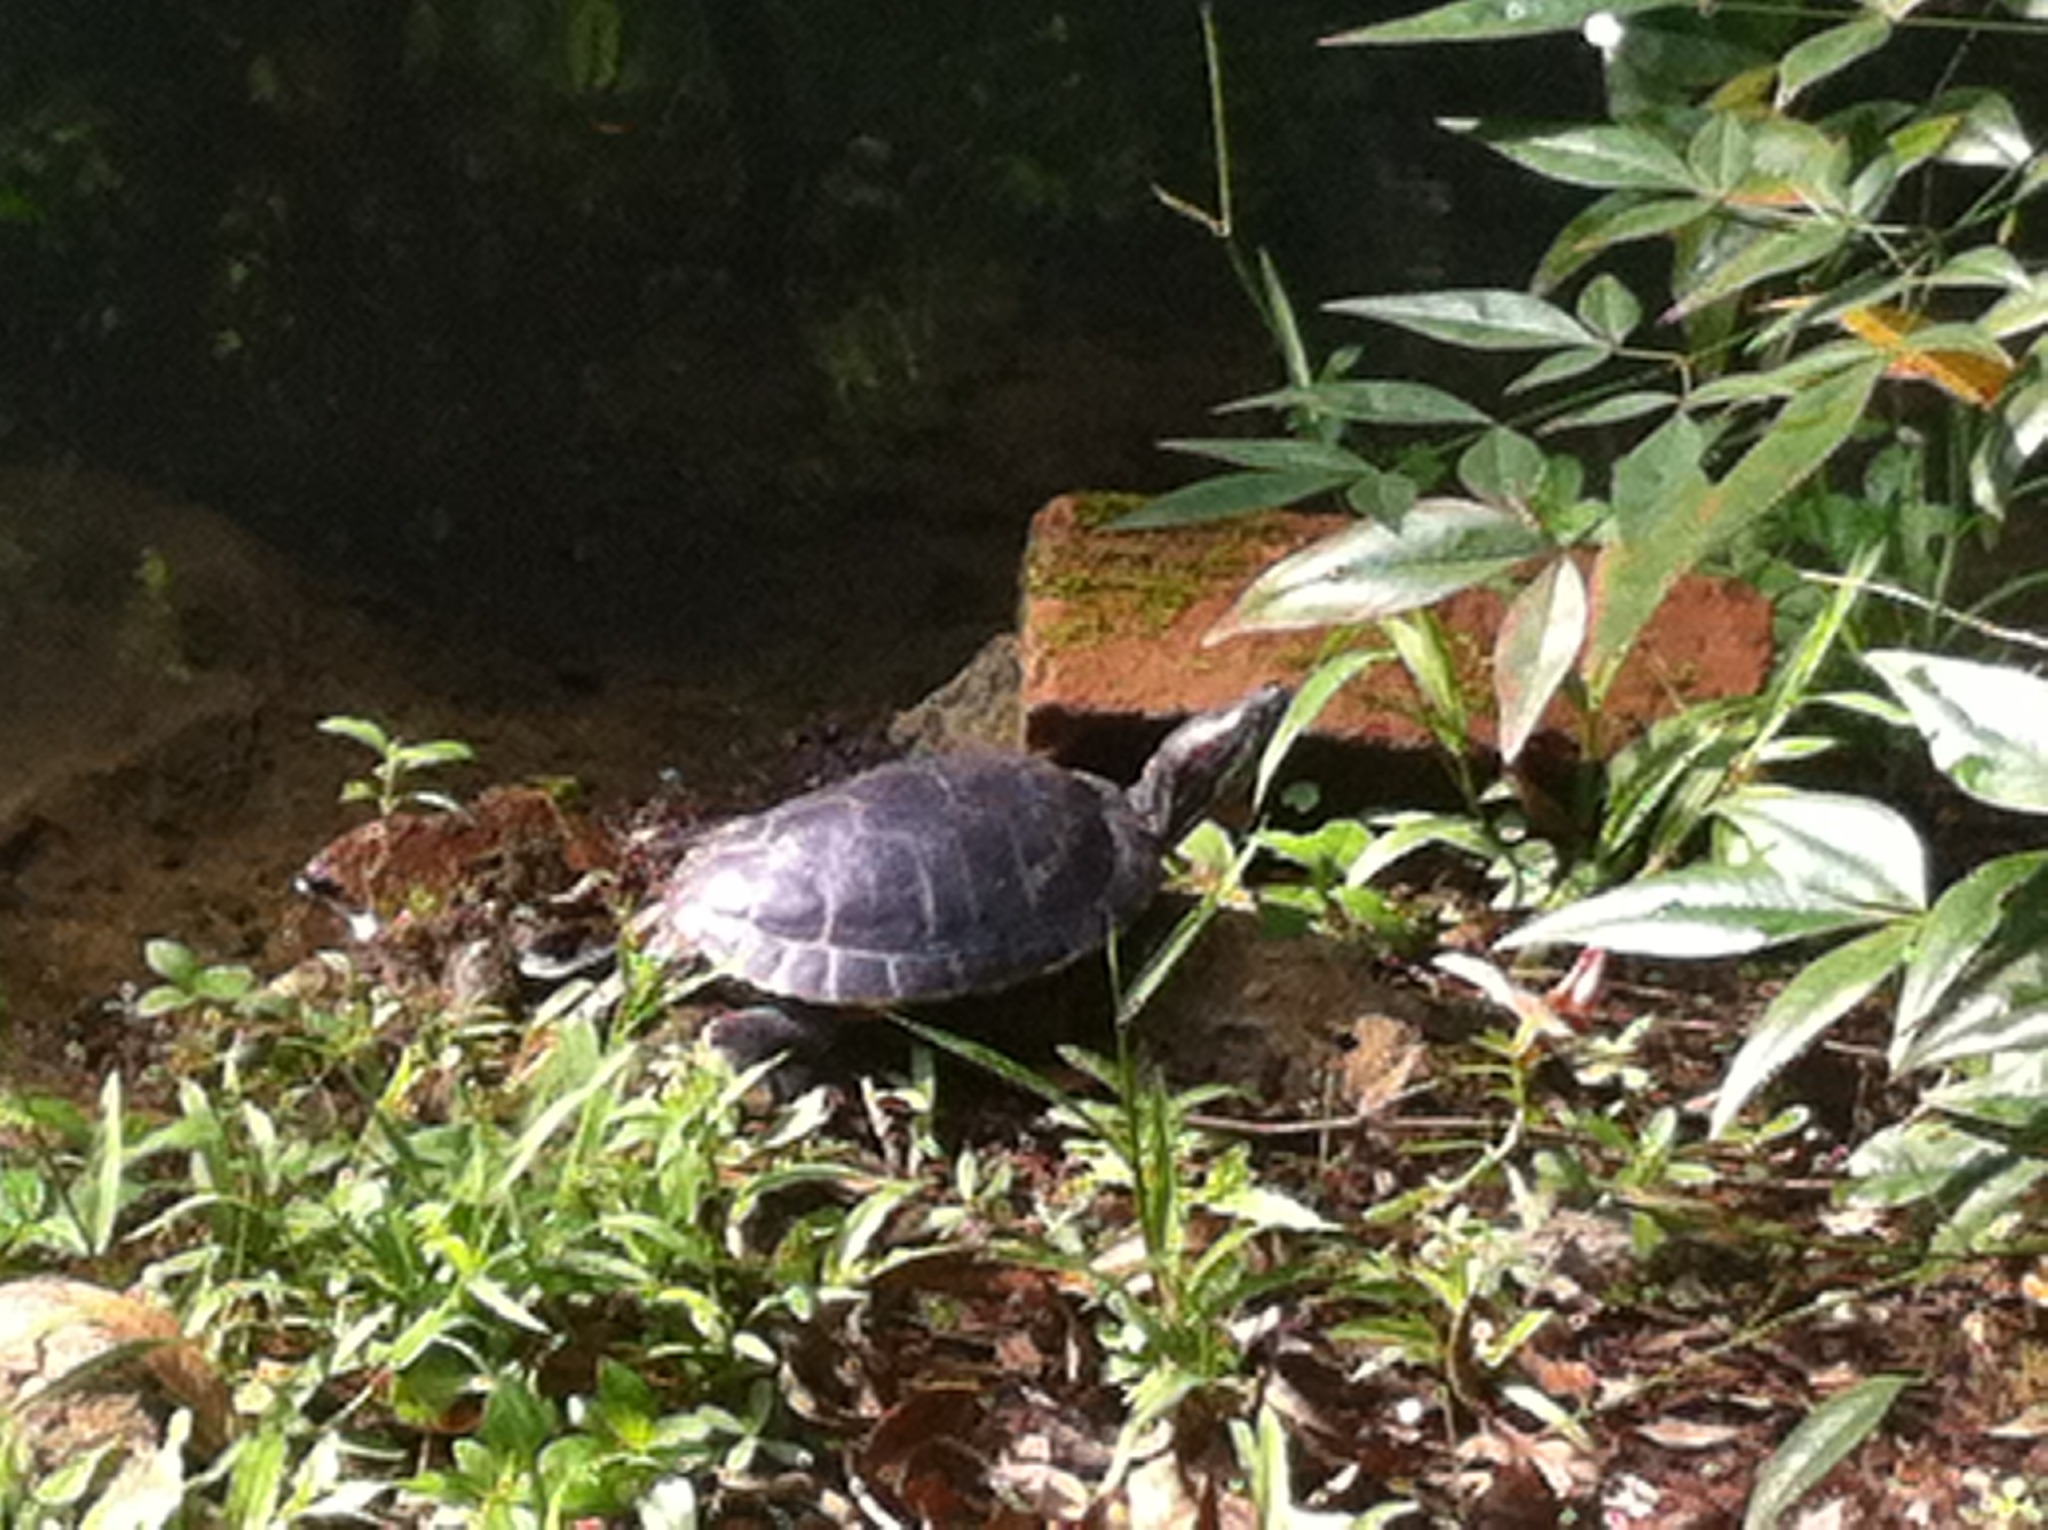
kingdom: Animalia
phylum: Chordata
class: Testudines
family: Emydidae
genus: Trachemys
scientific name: Trachemys scripta
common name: Slider
